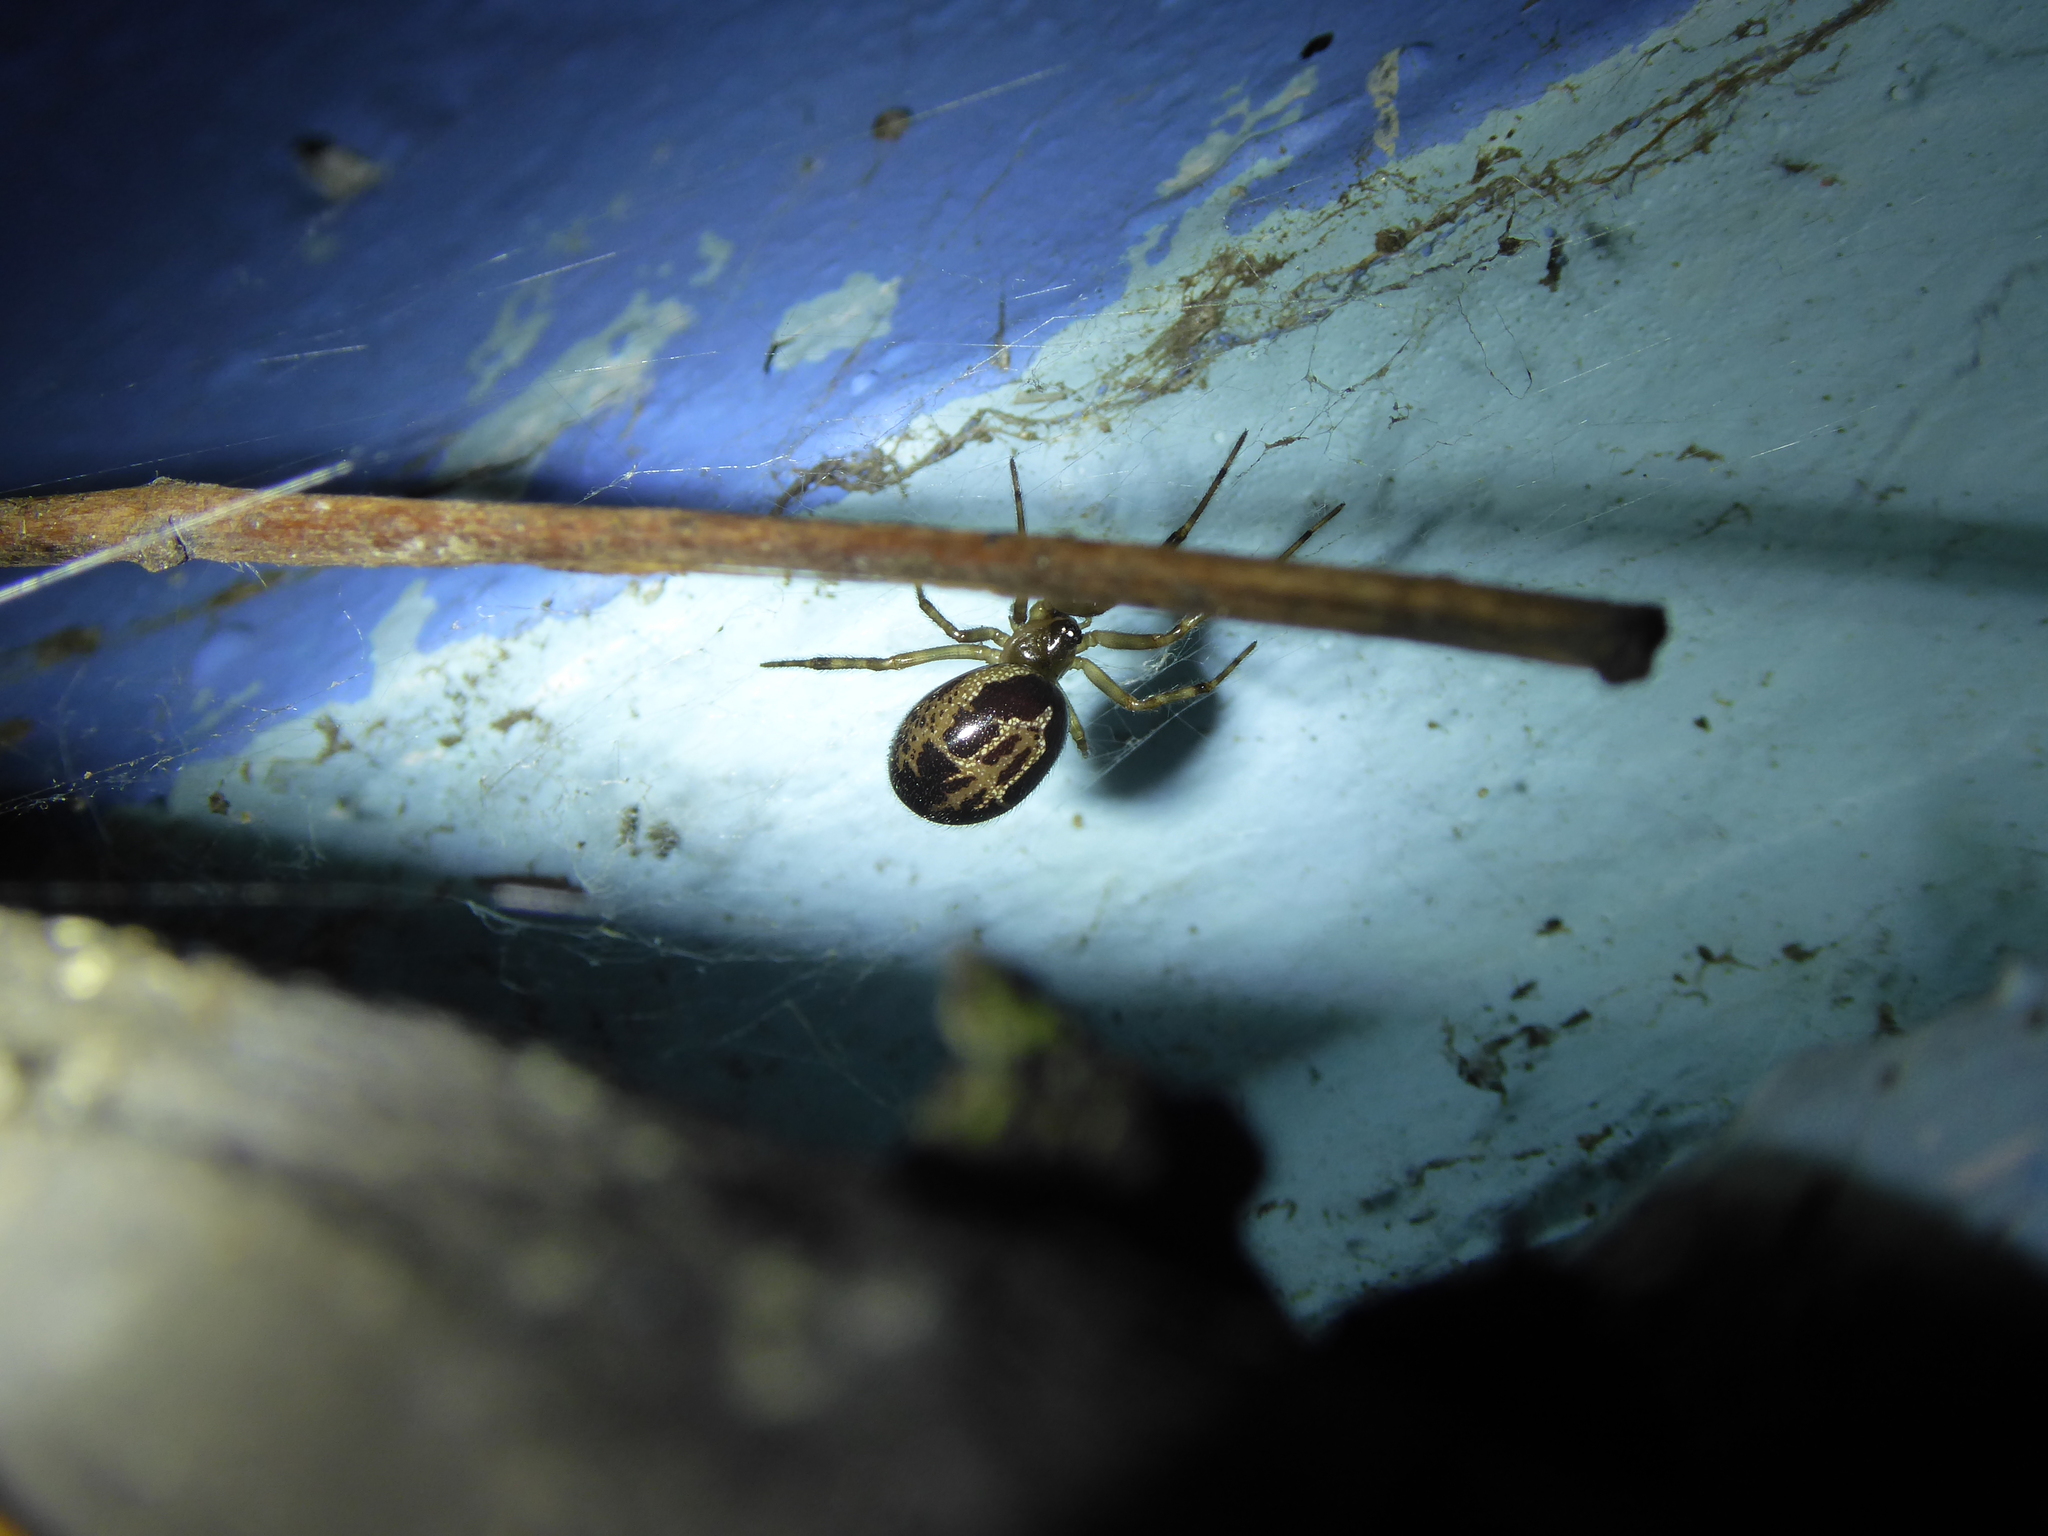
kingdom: Animalia
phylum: Arthropoda
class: Arachnida
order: Araneae
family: Theridiidae
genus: Steatoda
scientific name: Steatoda nobilis
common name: Cobweb weaver
